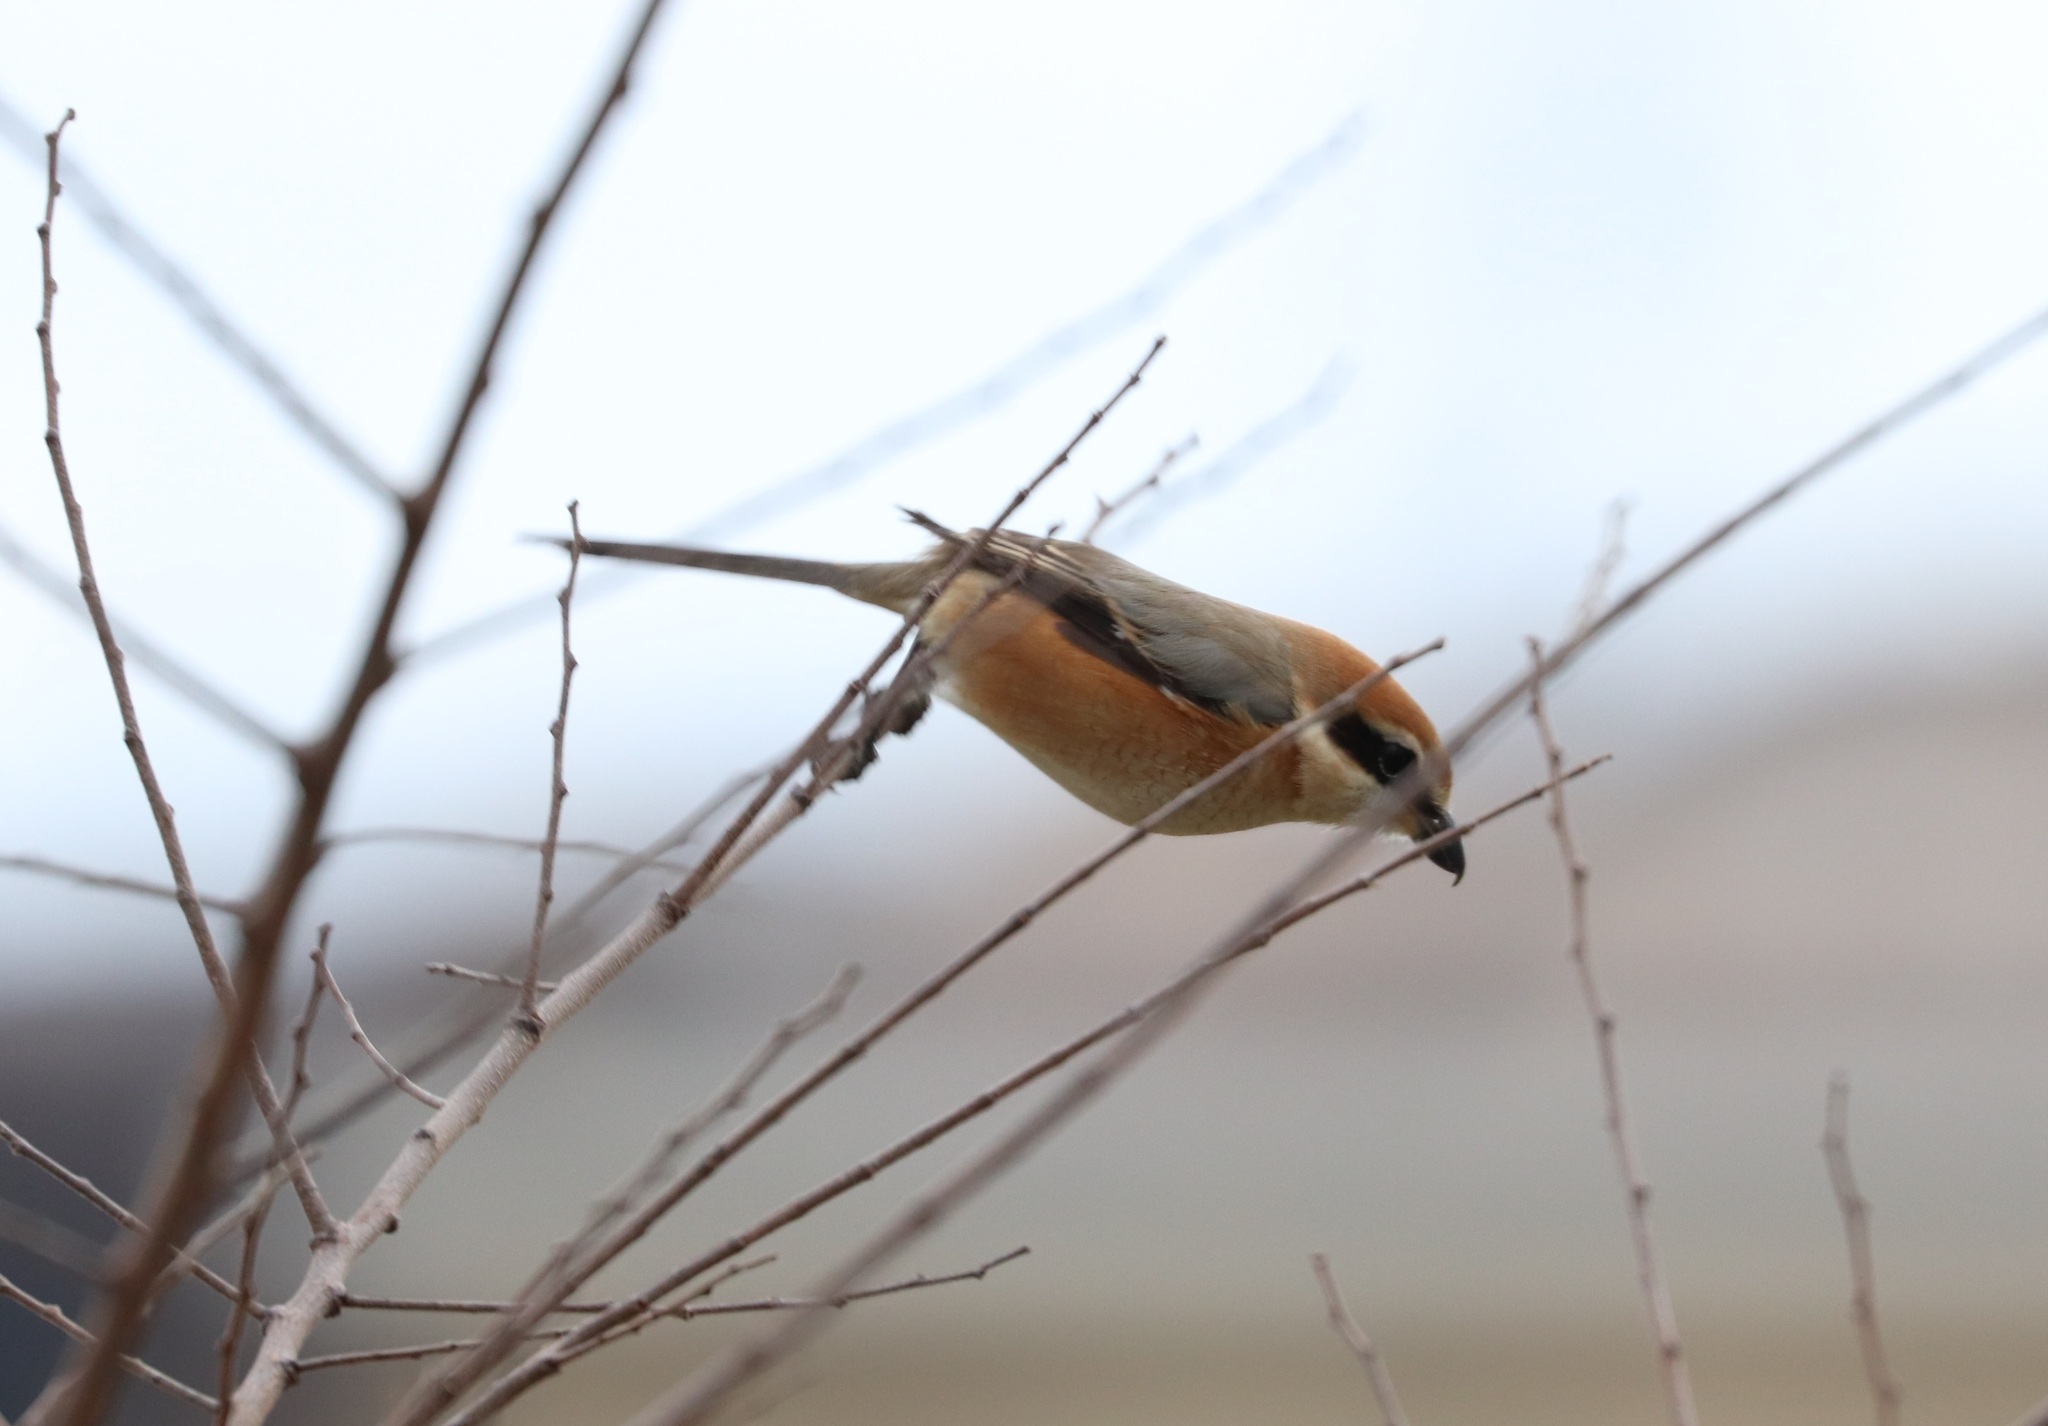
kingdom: Animalia
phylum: Chordata
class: Aves
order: Passeriformes
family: Laniidae
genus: Lanius
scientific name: Lanius bucephalus
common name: Bull-headed shrike
